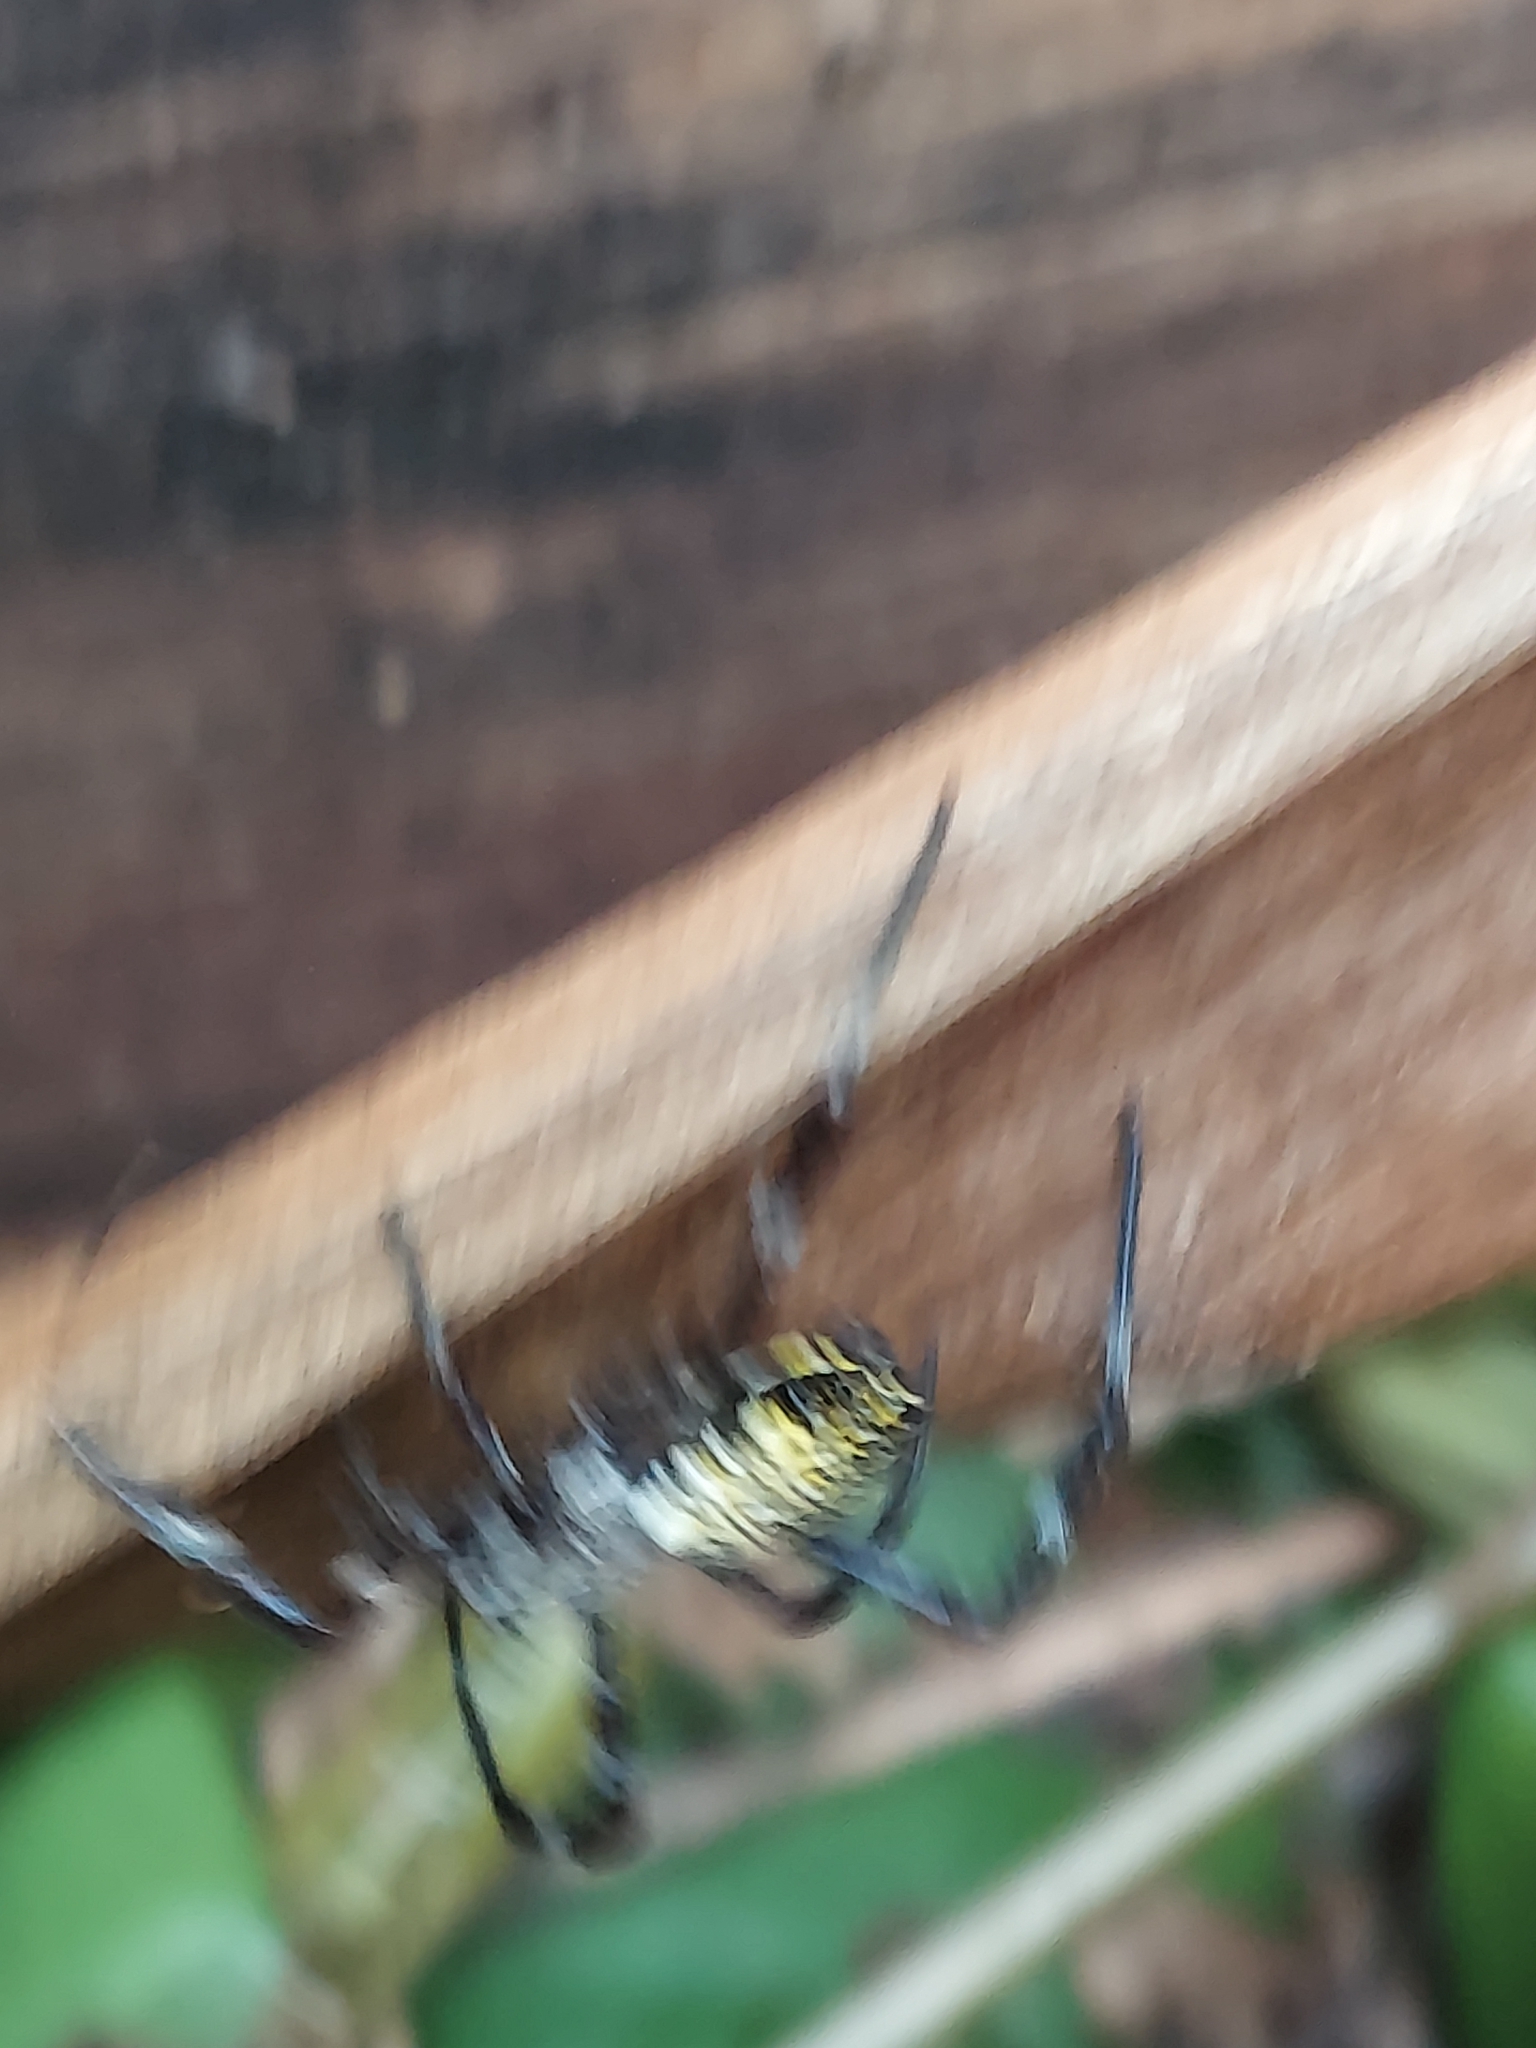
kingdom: Animalia
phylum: Arthropoda
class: Arachnida
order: Araneae
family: Araneidae
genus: Argiope
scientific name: Argiope appensa
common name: Garden spider
